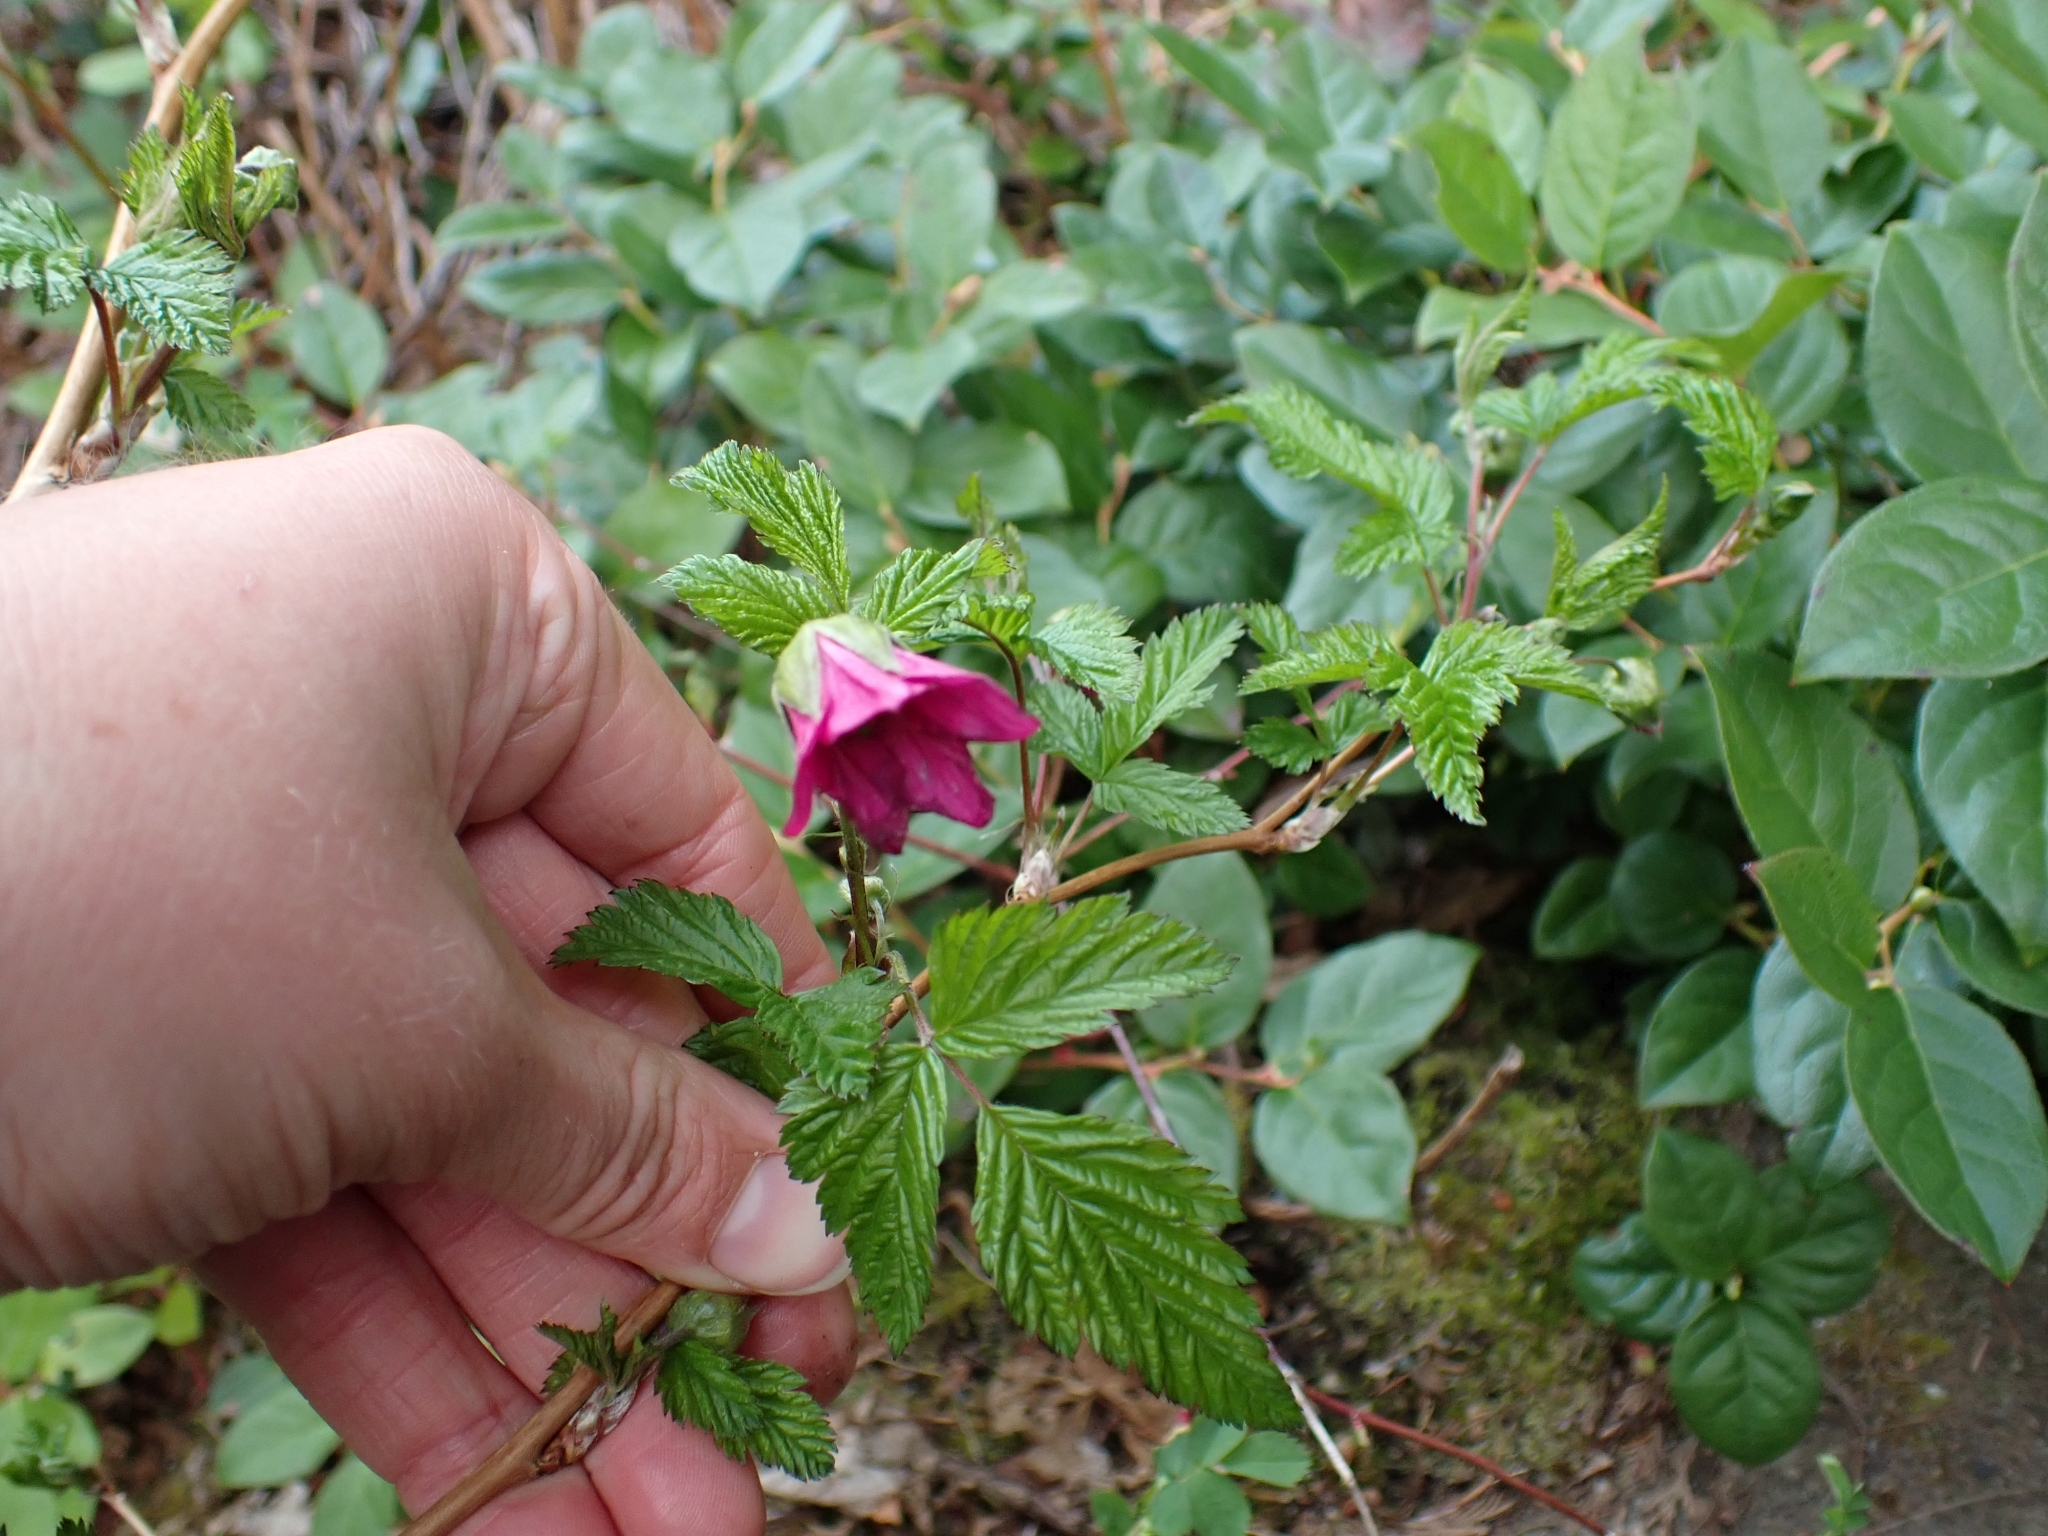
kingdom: Plantae
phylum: Tracheophyta
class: Magnoliopsida
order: Rosales
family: Rosaceae
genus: Rubus
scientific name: Rubus spectabilis
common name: Salmonberry
